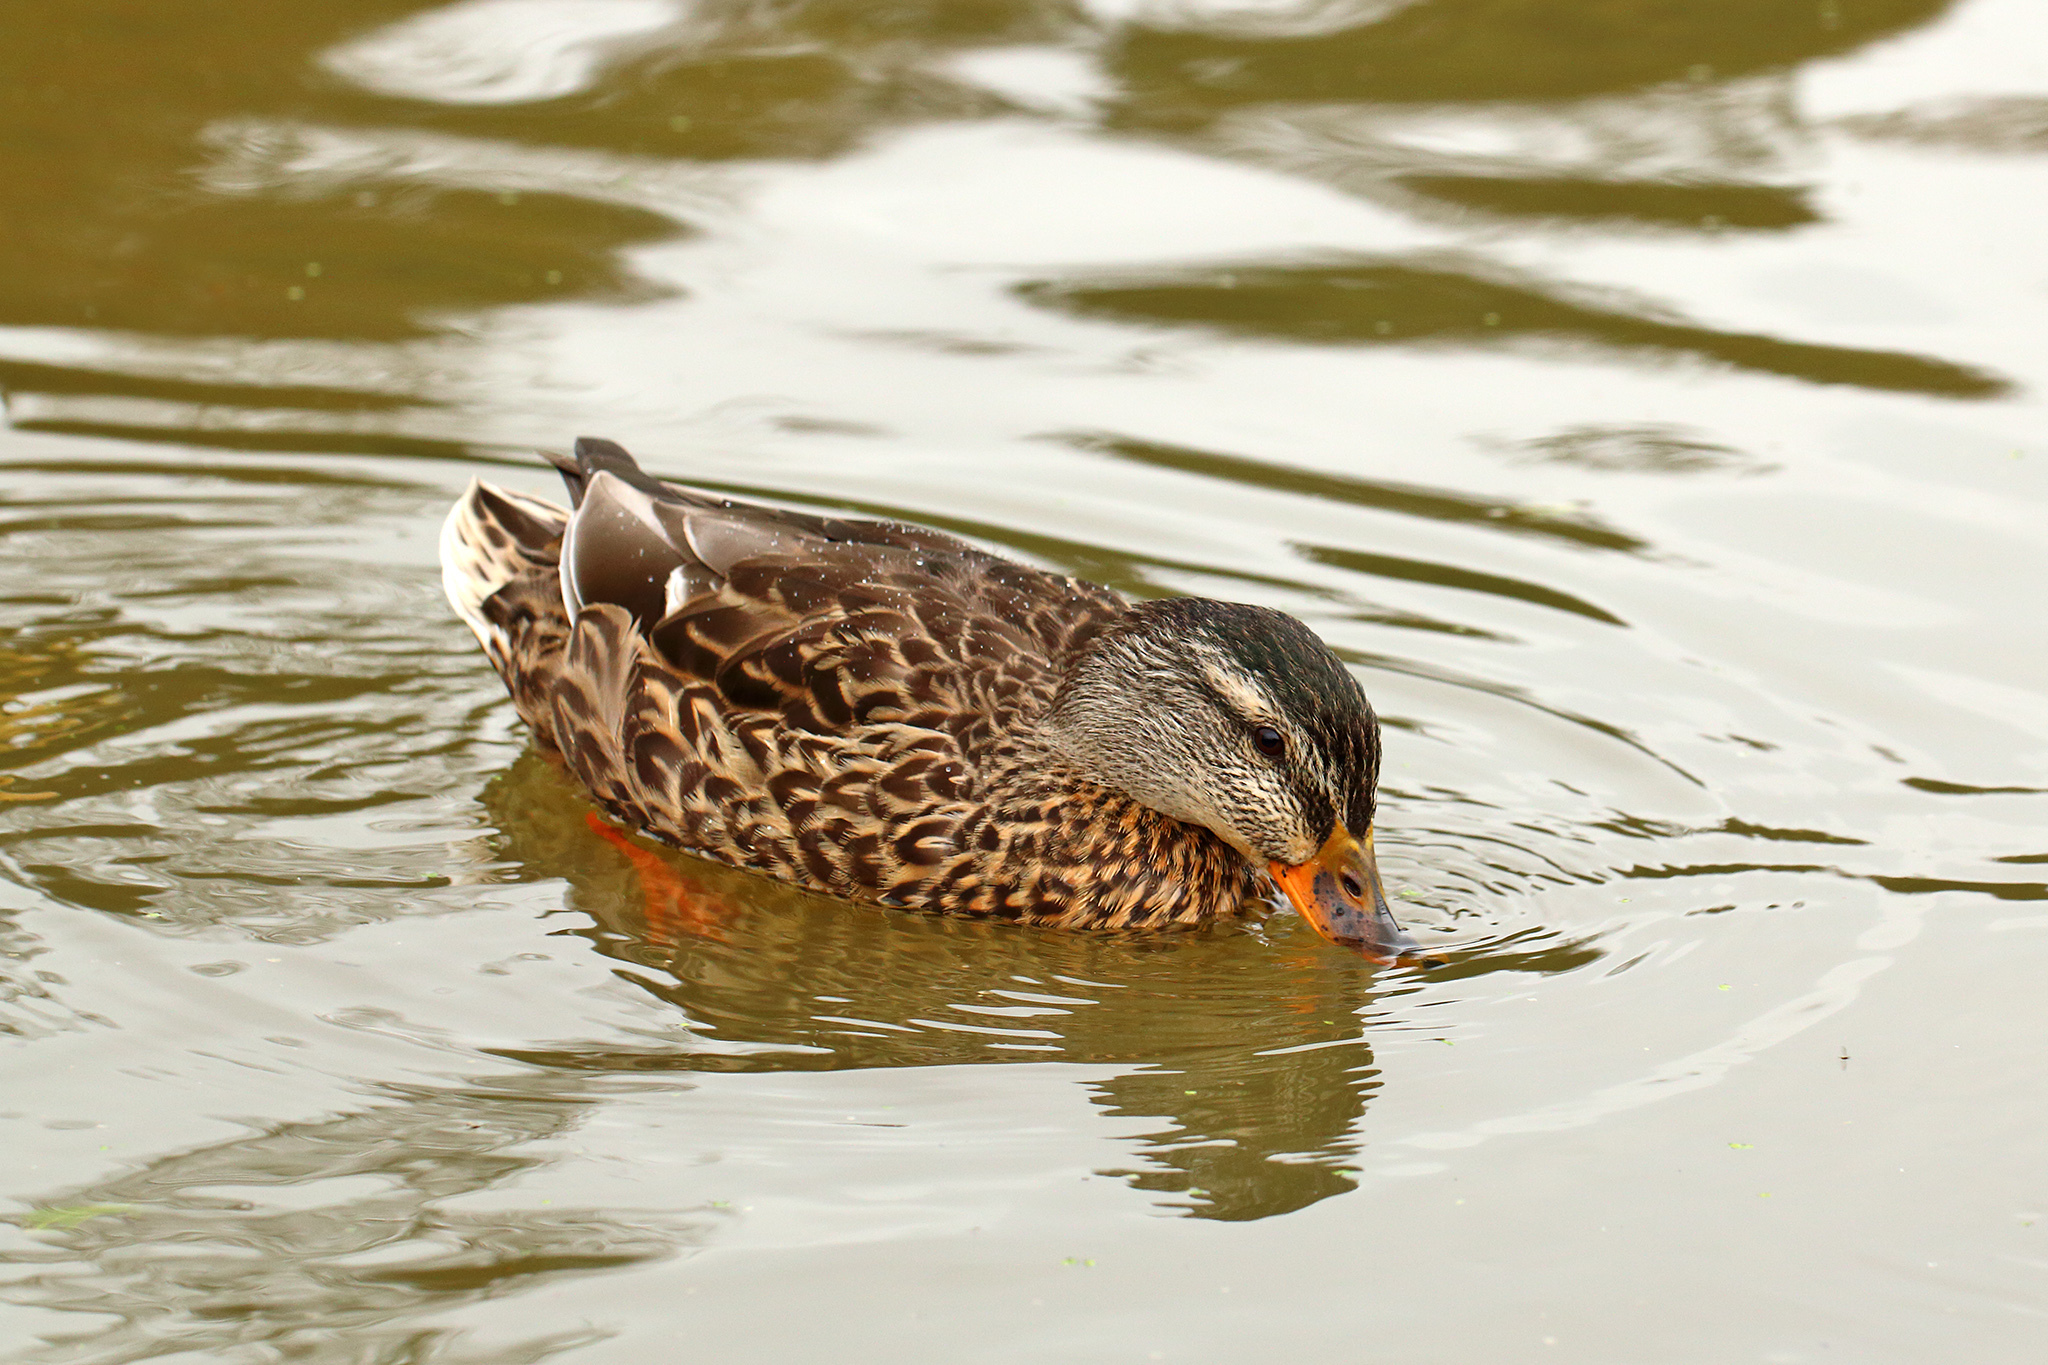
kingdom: Animalia
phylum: Chordata
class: Aves
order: Anseriformes
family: Anatidae
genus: Anas
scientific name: Anas platyrhynchos
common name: Mallard
